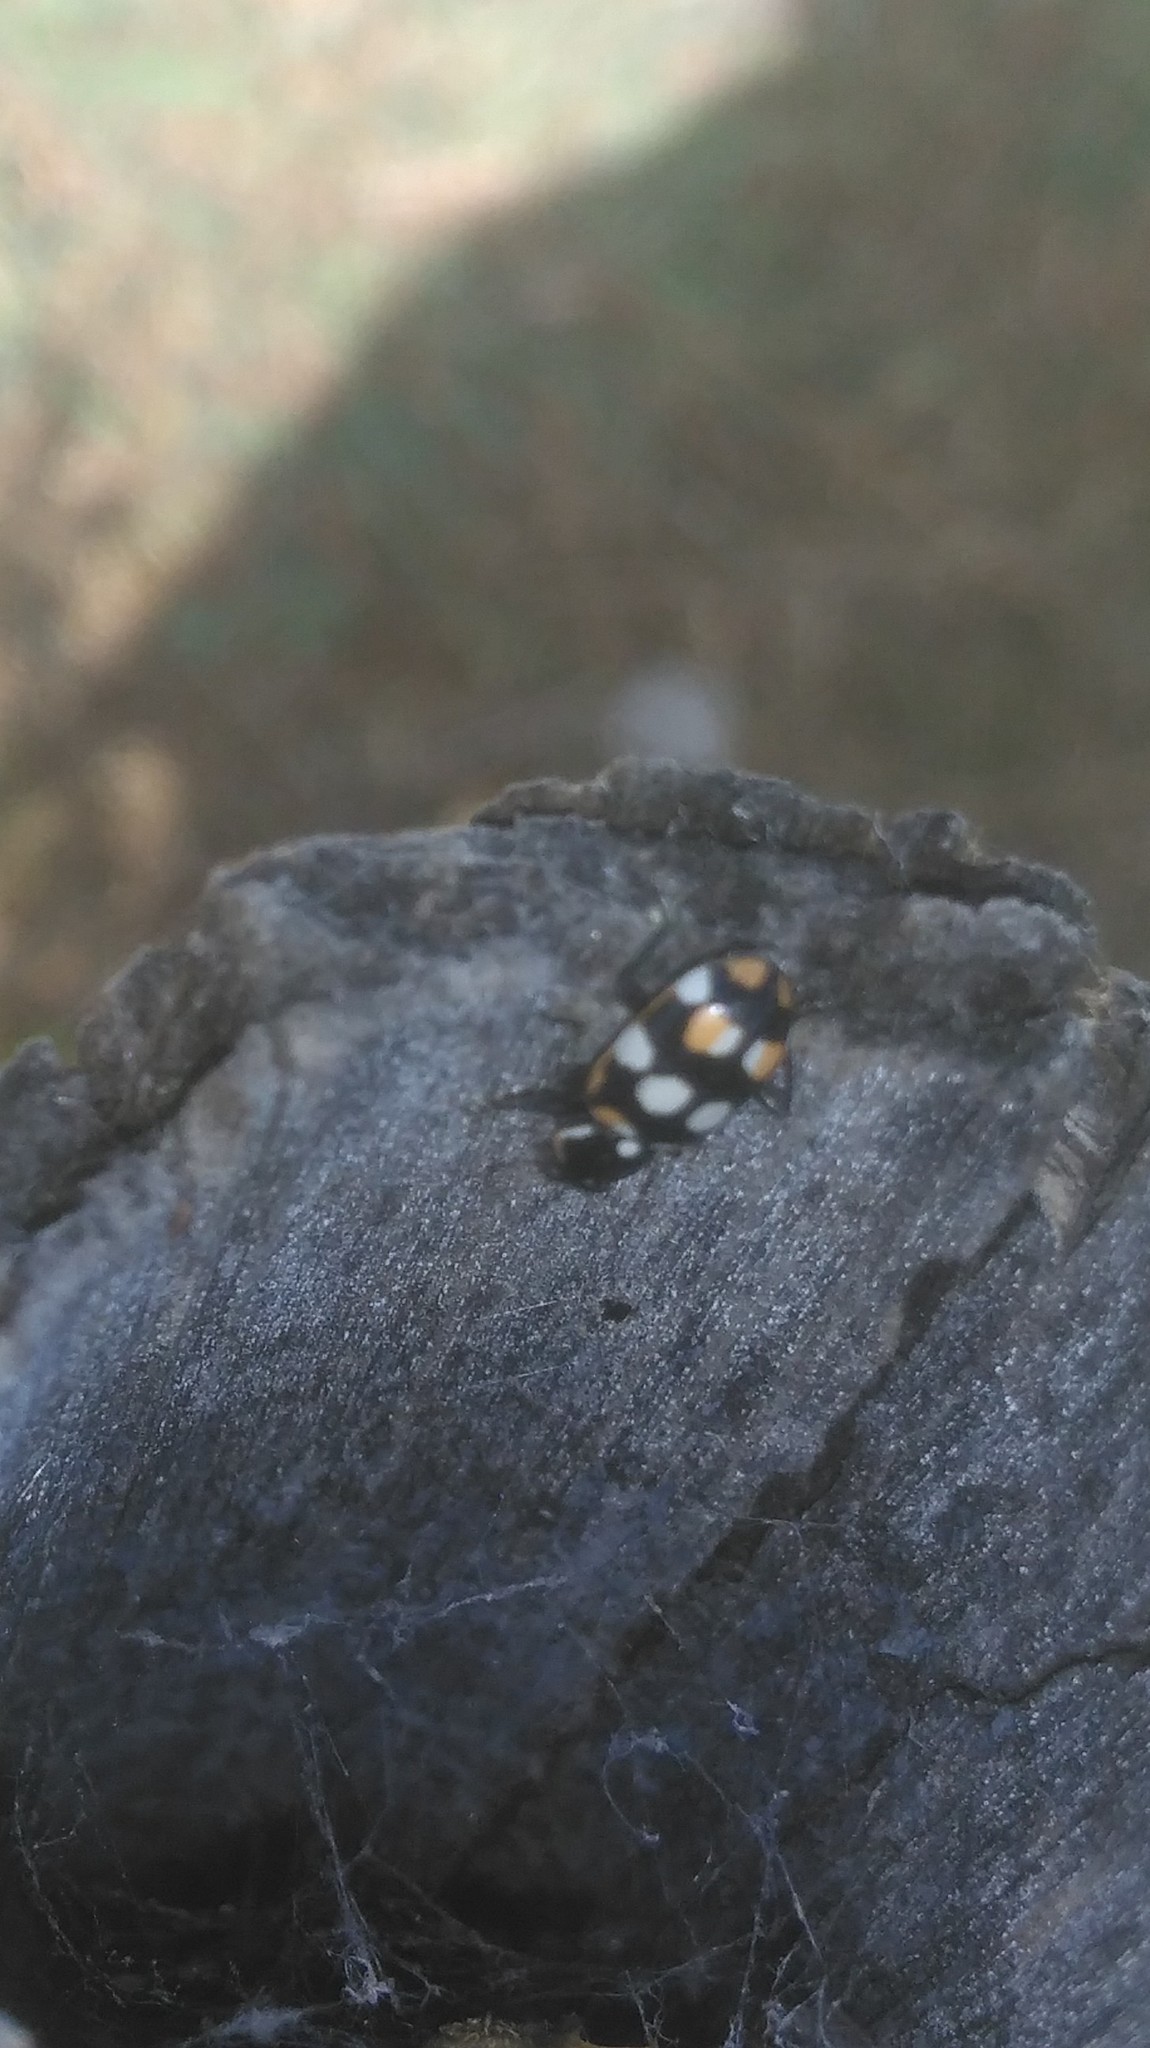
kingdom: Animalia
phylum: Arthropoda
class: Insecta
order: Coleoptera
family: Coccinellidae
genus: Eriopis
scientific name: Eriopis connexa
